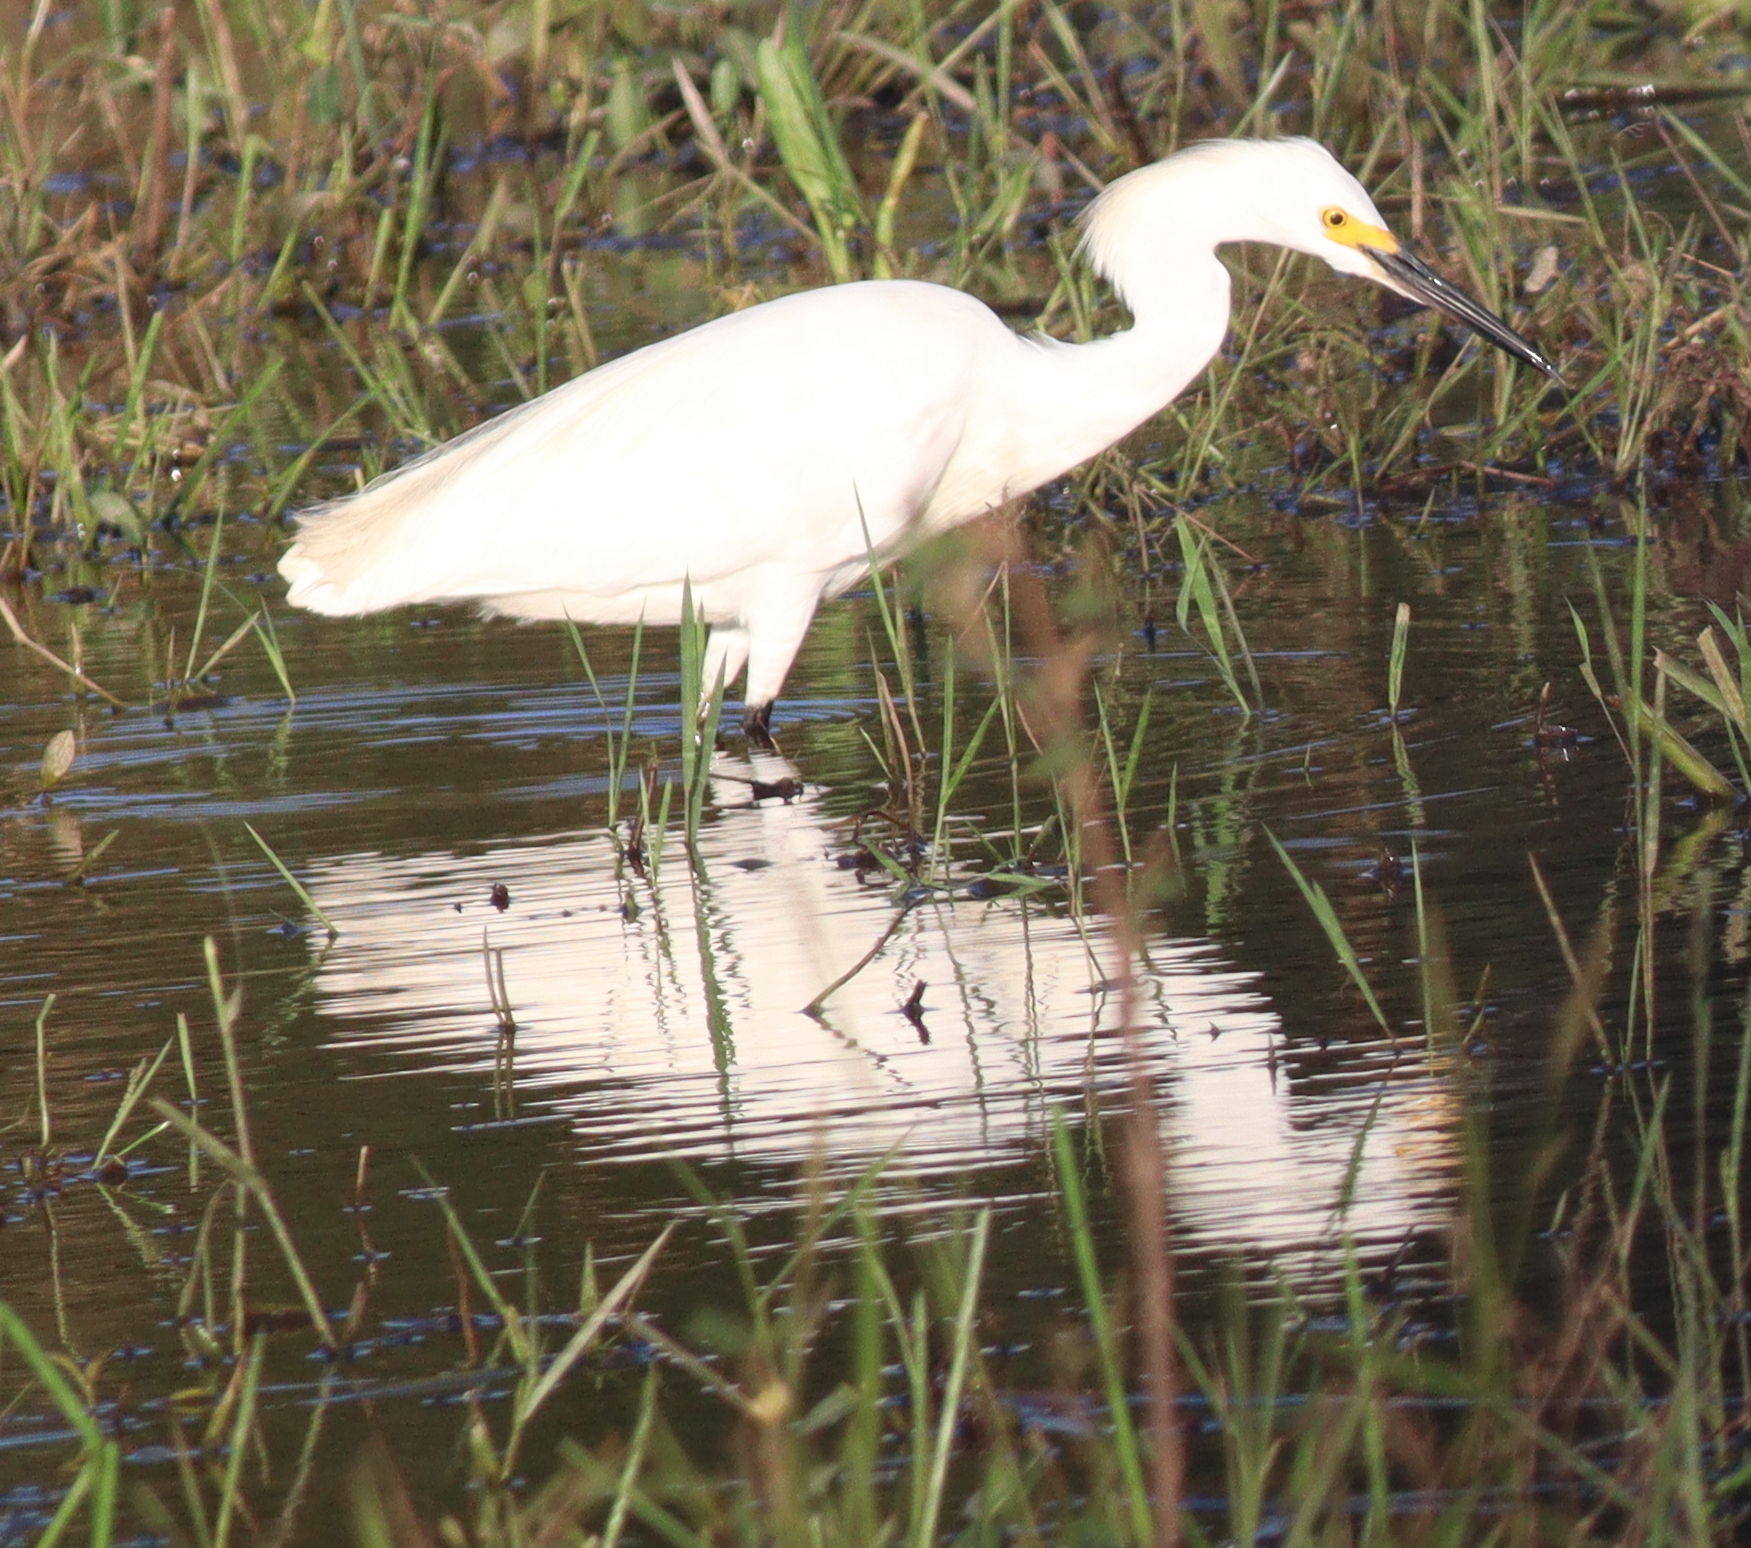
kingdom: Animalia
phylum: Chordata
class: Aves
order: Pelecaniformes
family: Ardeidae
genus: Egretta
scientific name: Egretta thula
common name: Snowy egret
